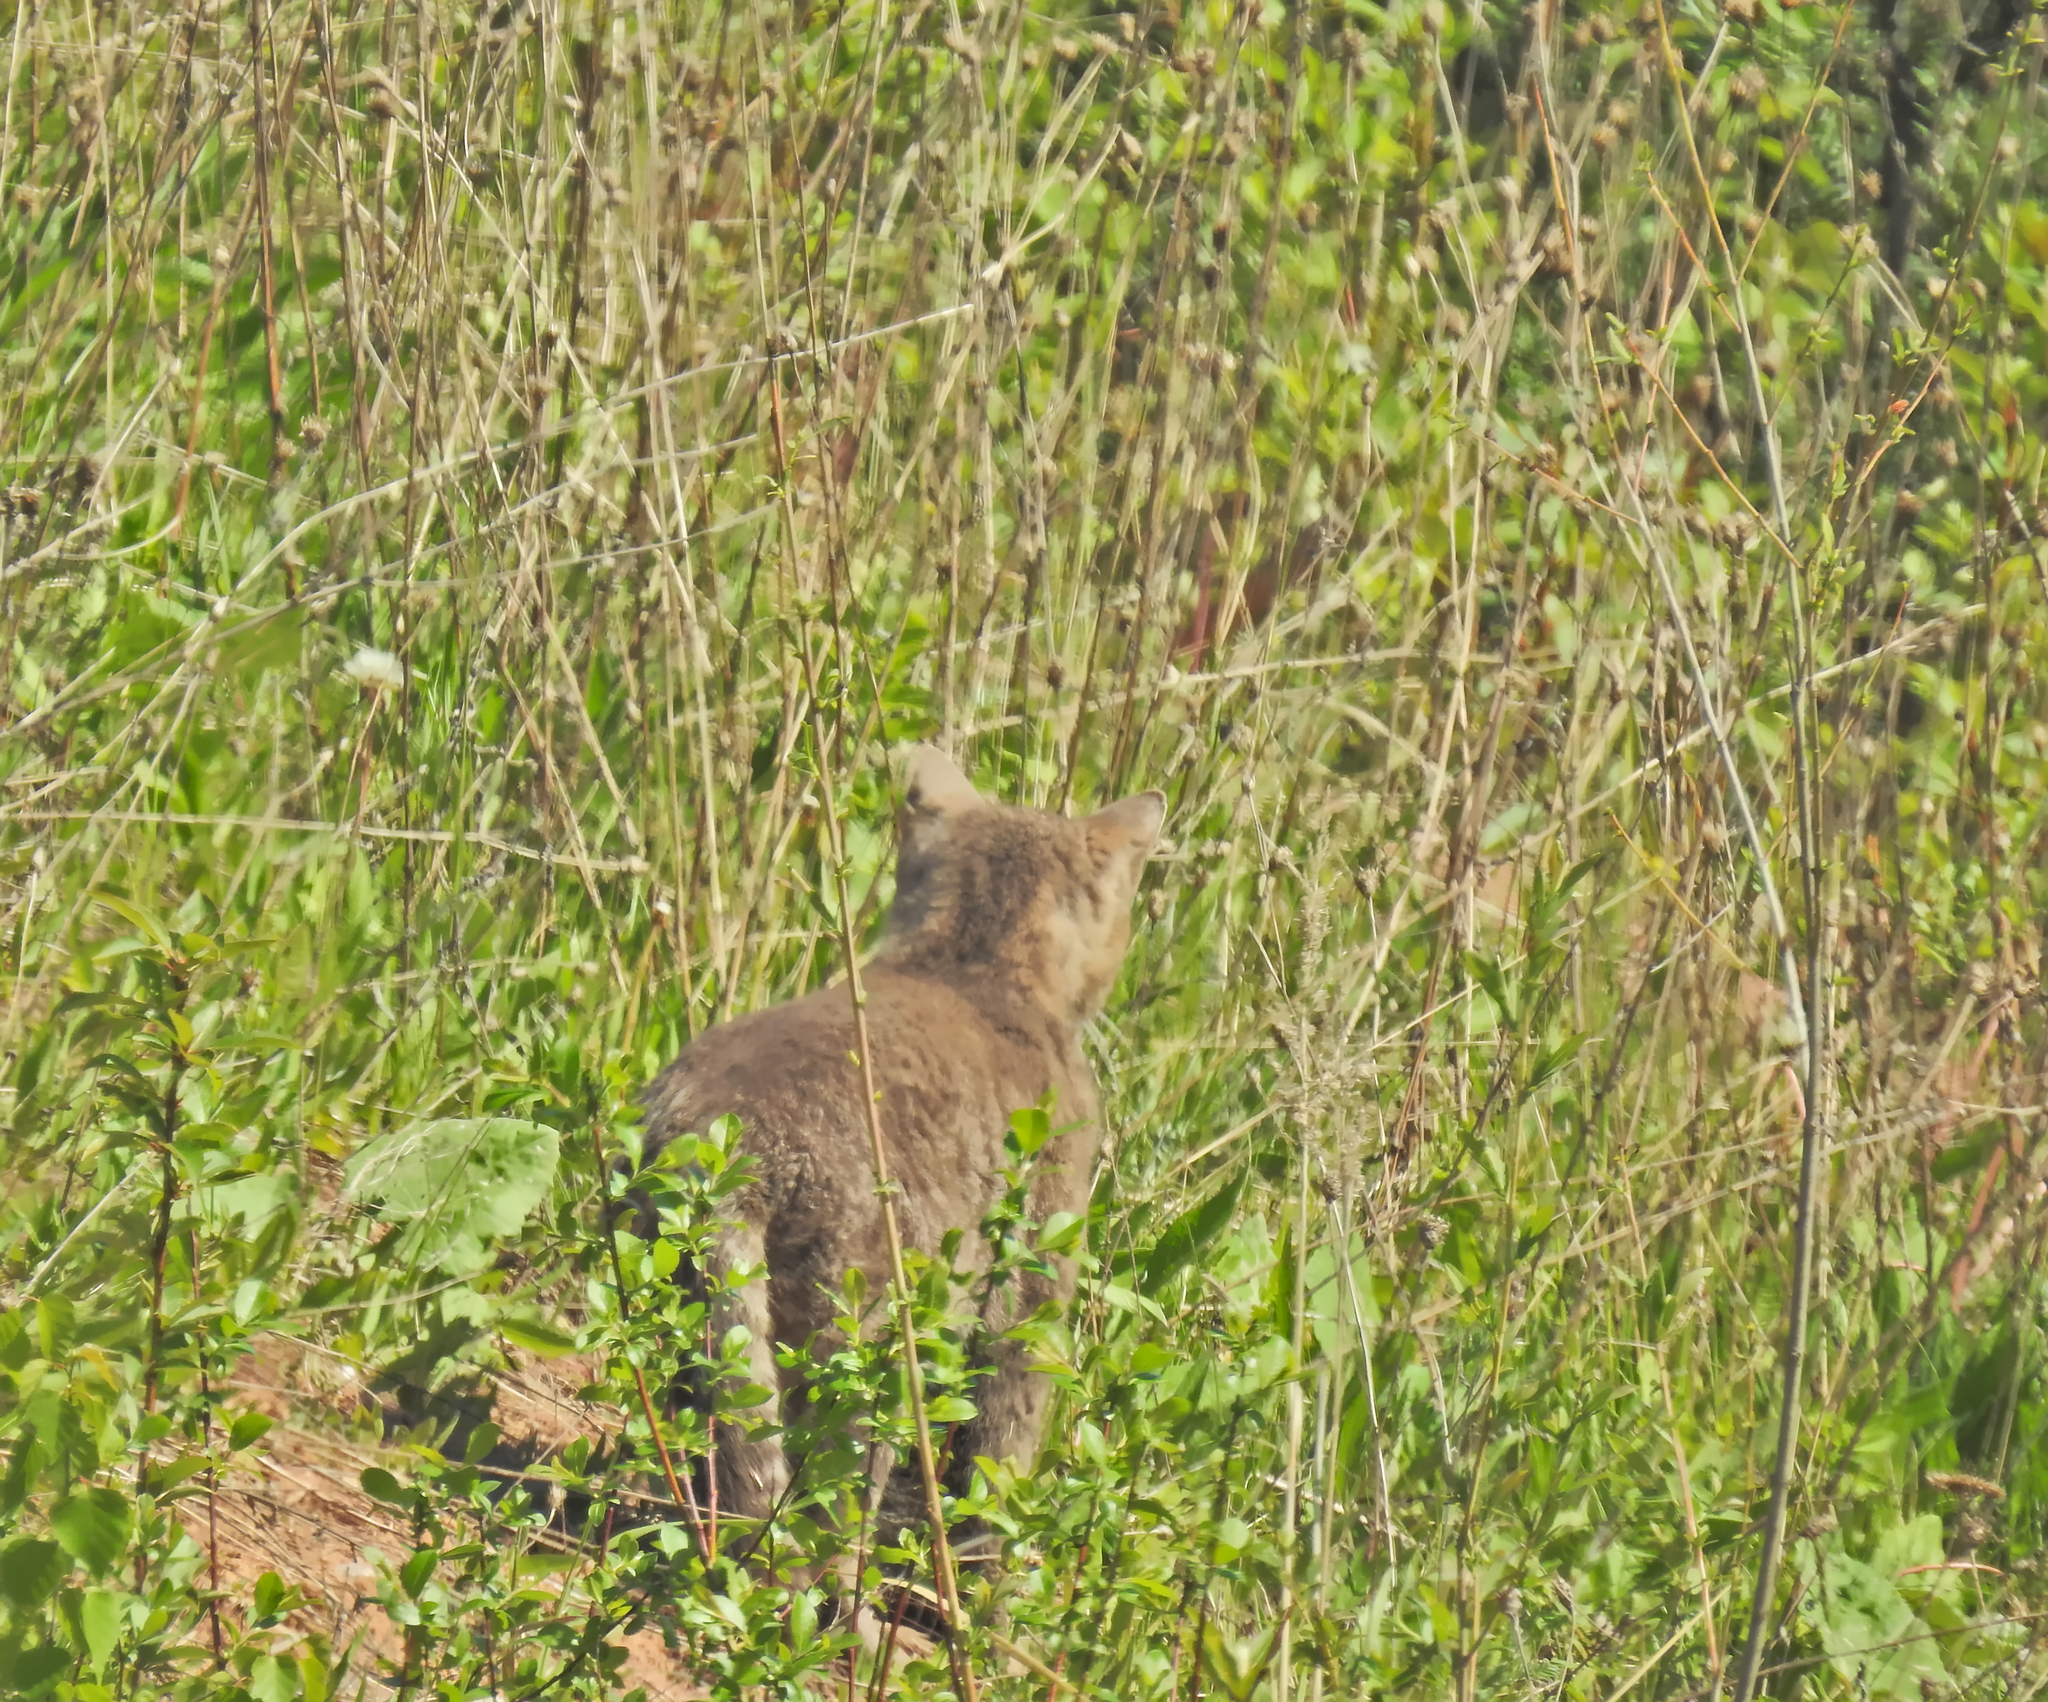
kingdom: Animalia
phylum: Chordata
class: Mammalia
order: Carnivora
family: Felidae
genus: Felis
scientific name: Felis catus
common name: Domestic cat
